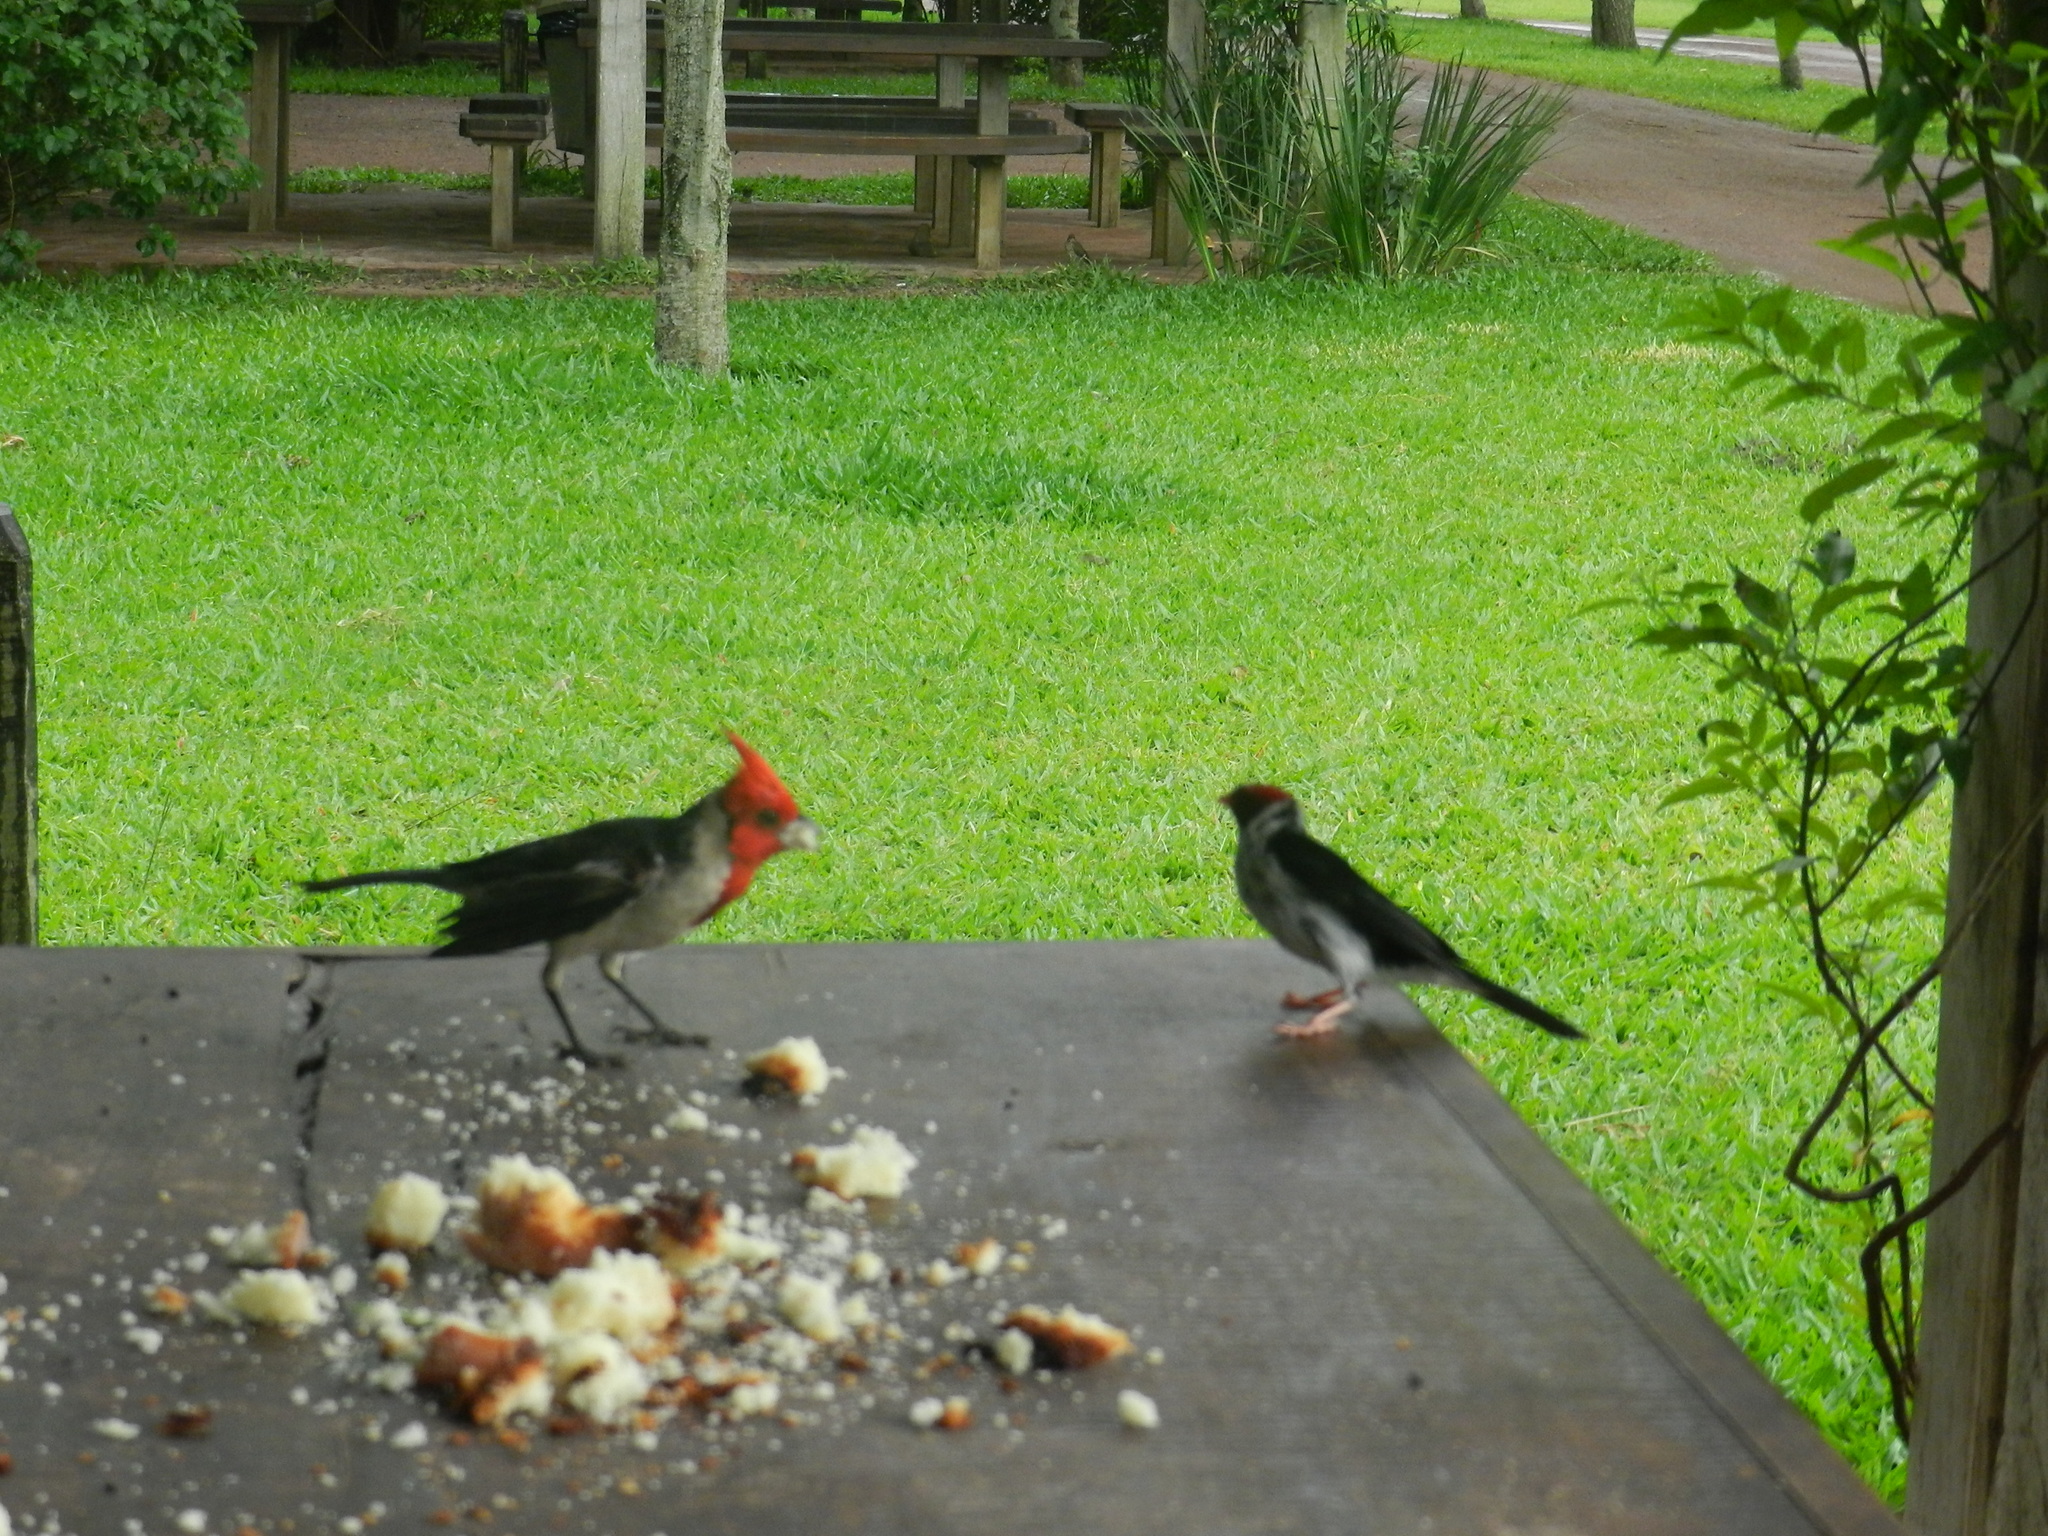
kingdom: Animalia
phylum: Chordata
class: Aves
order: Passeriformes
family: Thraupidae
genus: Paroaria
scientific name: Paroaria capitata
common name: Yellow-billed cardinal
